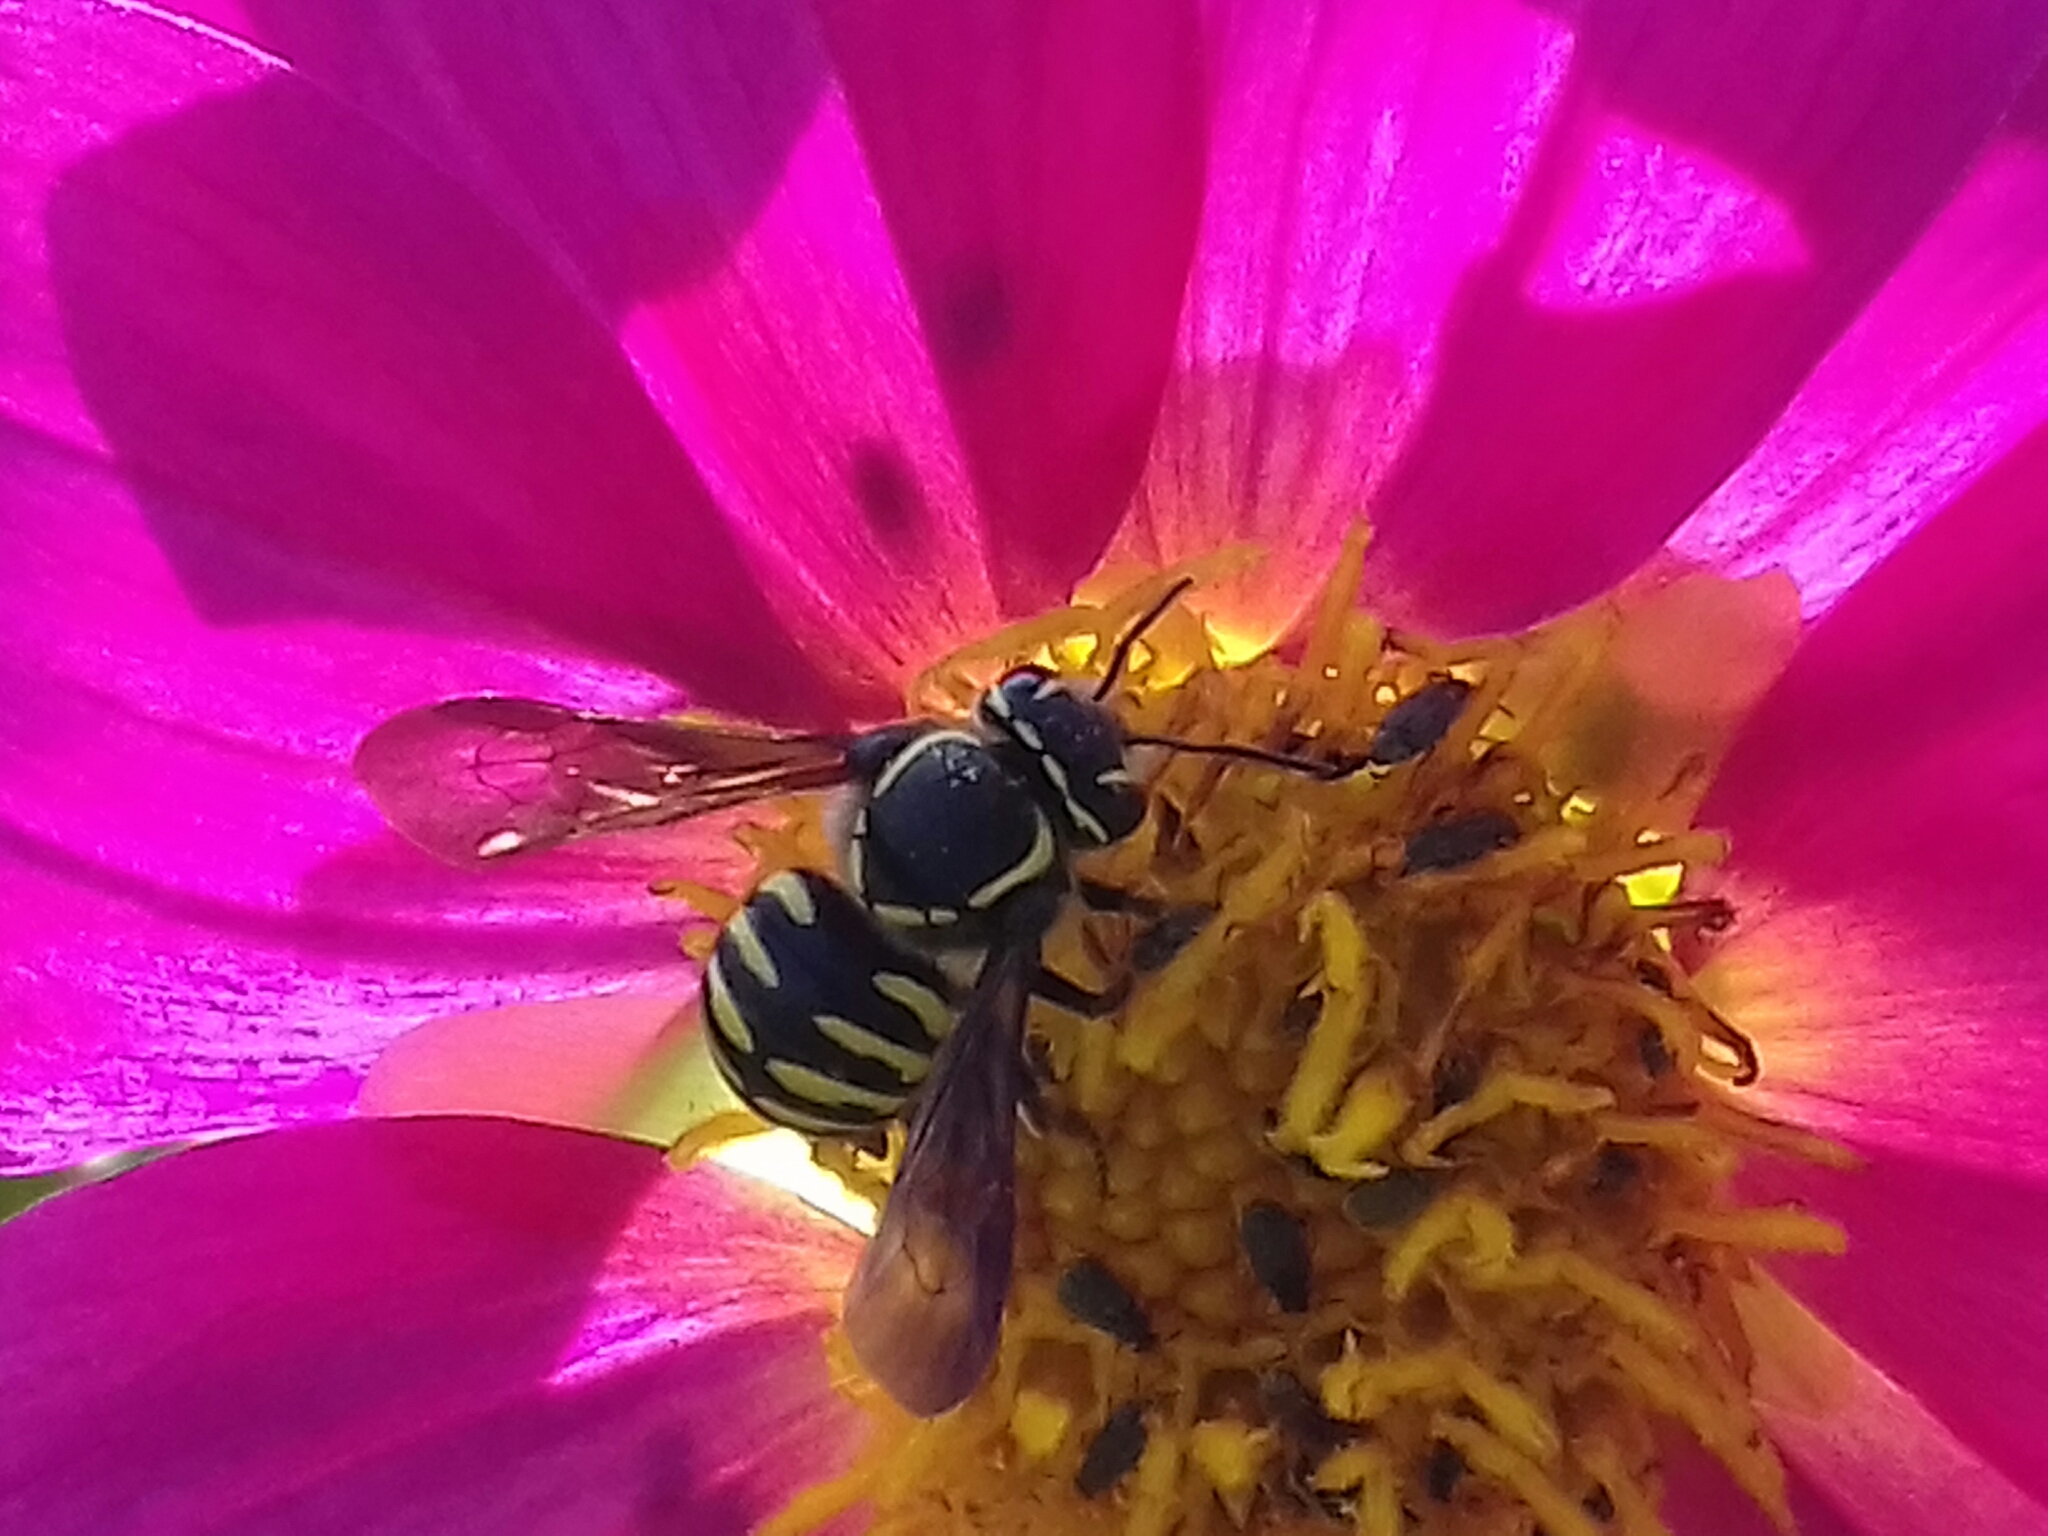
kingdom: Animalia
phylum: Arthropoda
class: Insecta
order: Hymenoptera
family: Megachilidae
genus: Paranthidium
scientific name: Paranthidium gabbii
